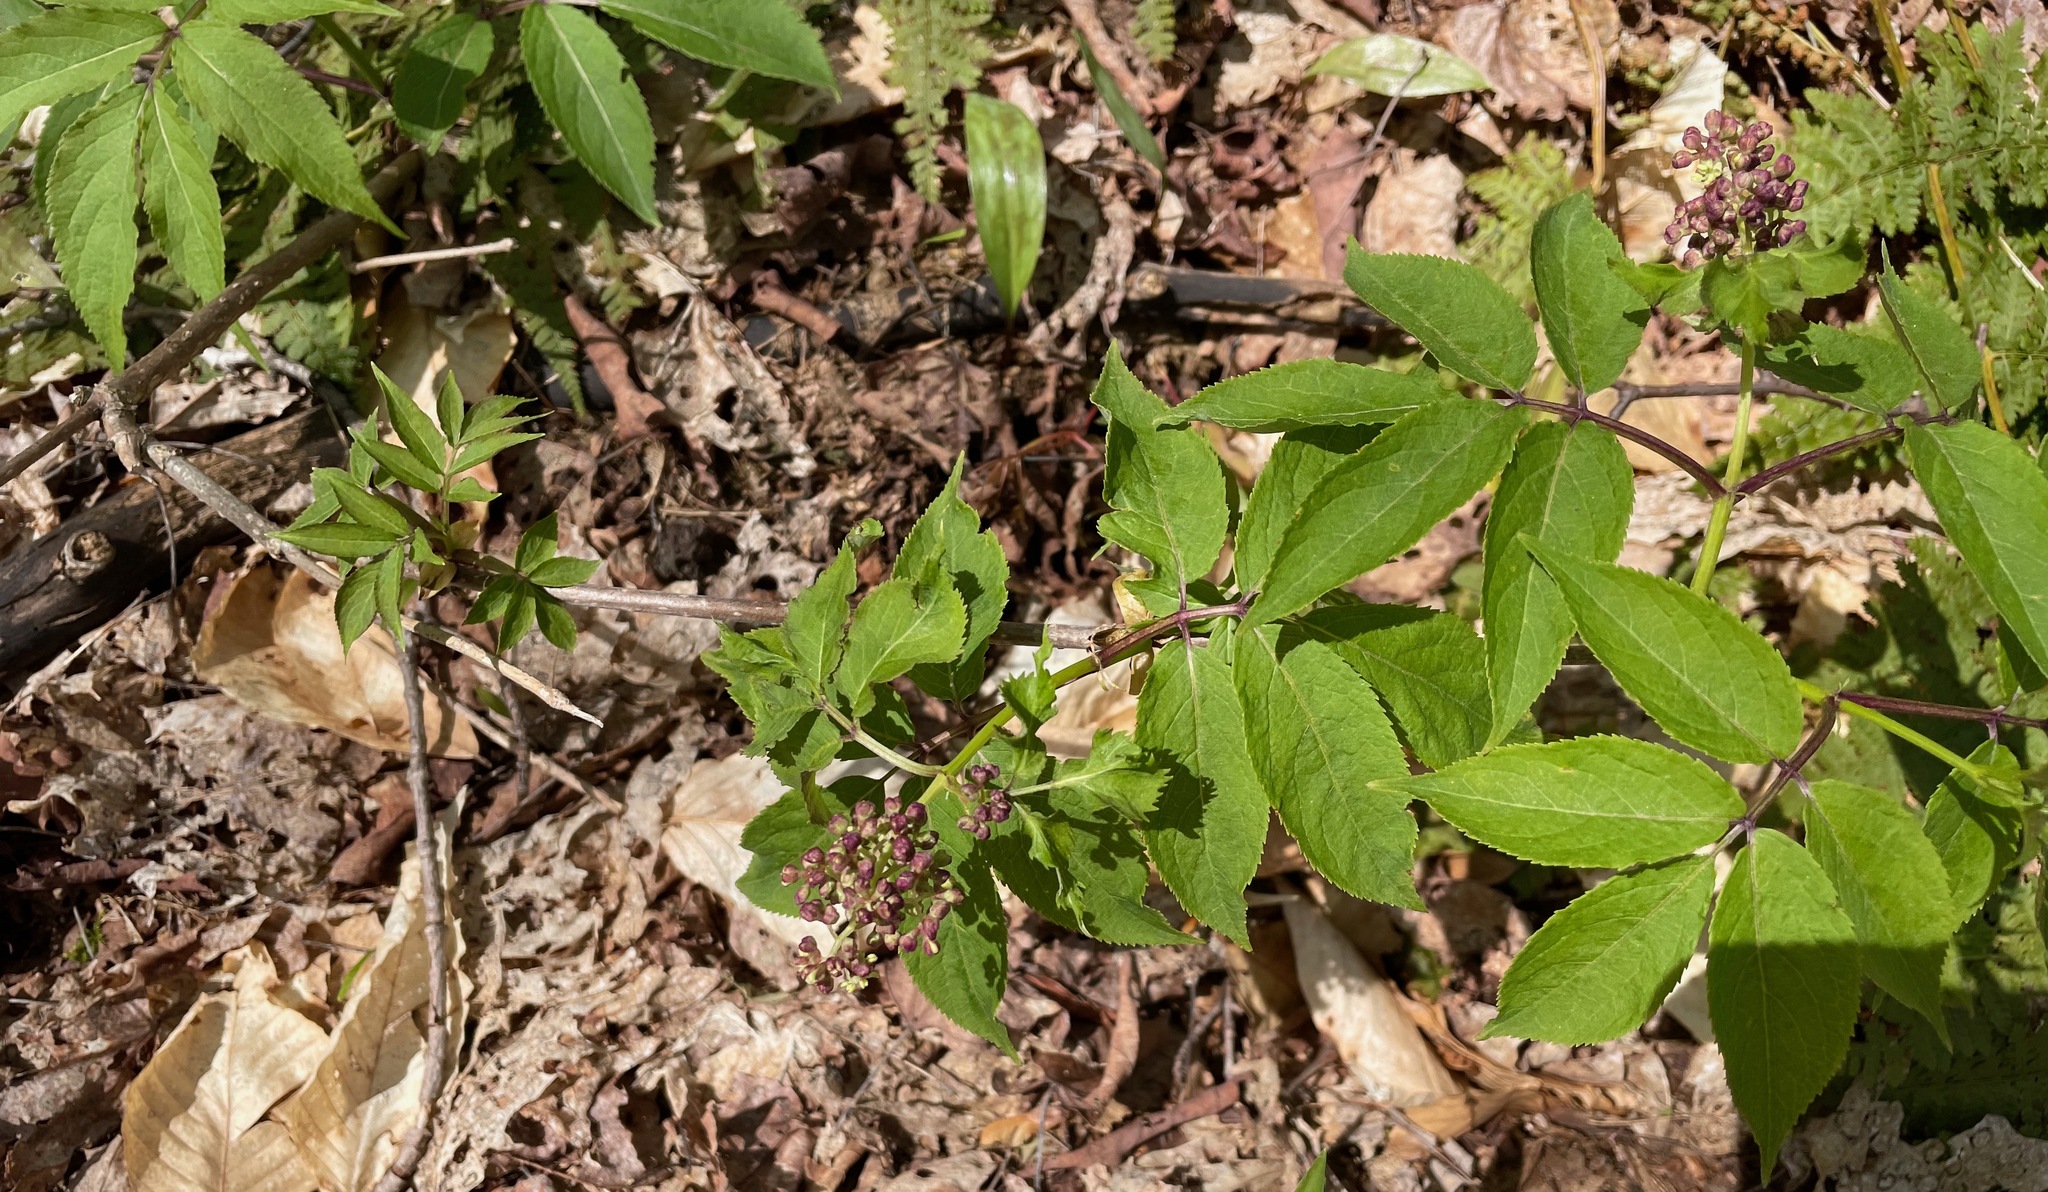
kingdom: Plantae
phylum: Tracheophyta
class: Magnoliopsida
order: Dipsacales
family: Viburnaceae
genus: Sambucus
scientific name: Sambucus racemosa
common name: Red-berried elder
